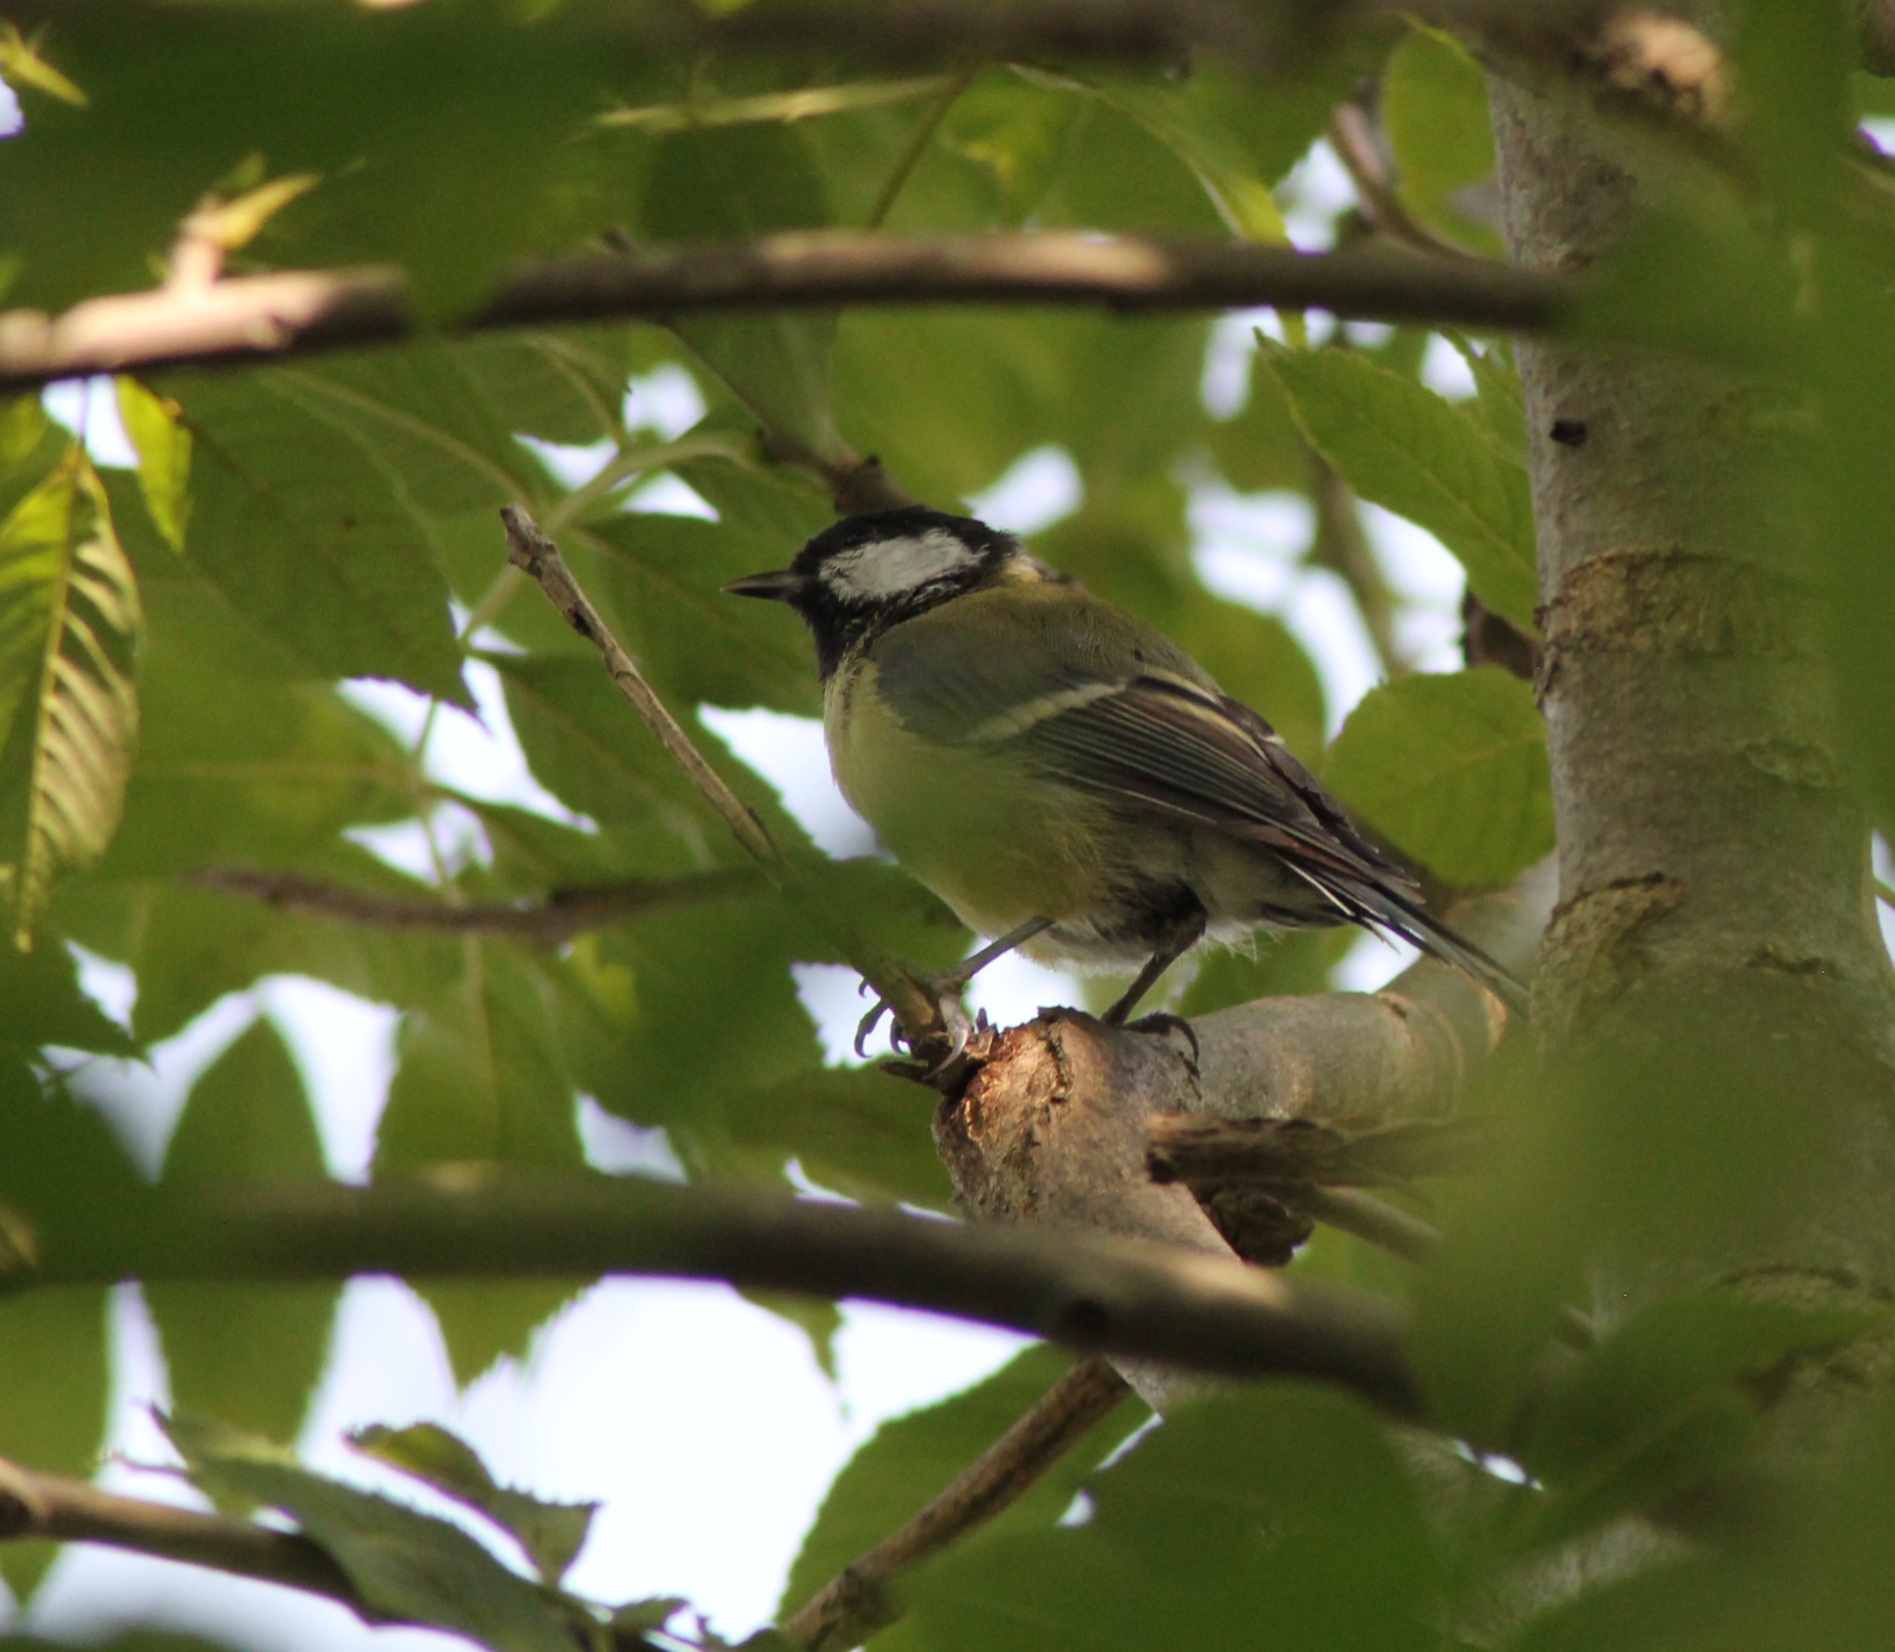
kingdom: Animalia
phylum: Chordata
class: Aves
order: Passeriformes
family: Paridae
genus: Parus
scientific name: Parus major
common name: Great tit
